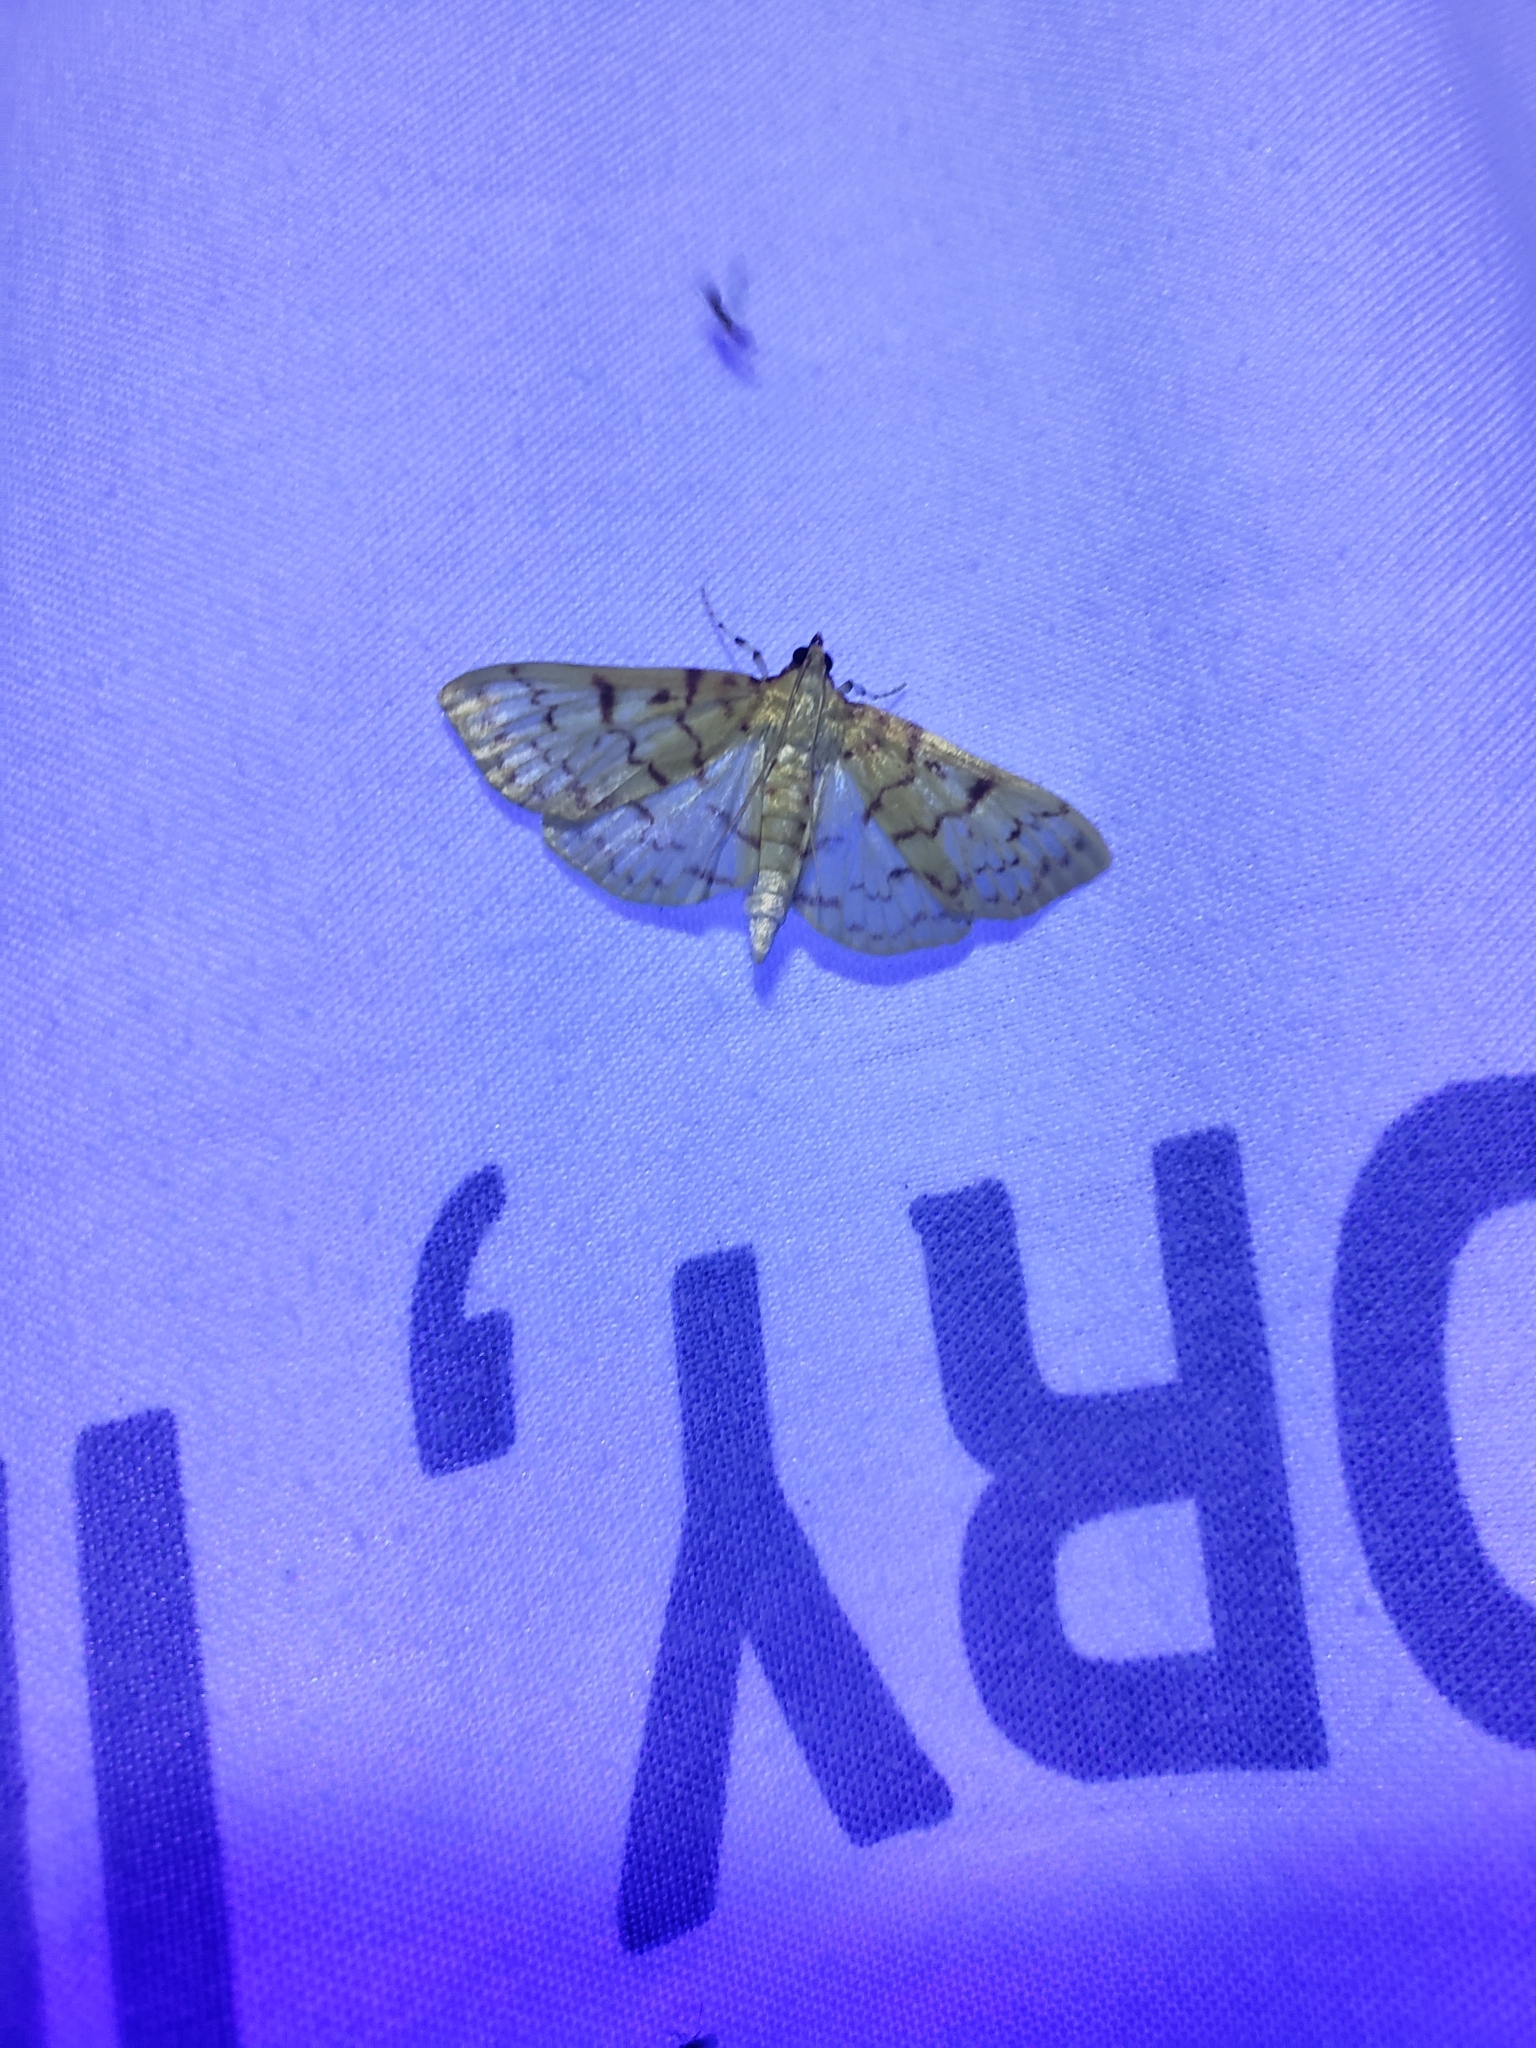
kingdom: Animalia
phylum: Arthropoda
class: Insecta
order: Lepidoptera
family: Crambidae
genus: Polygrammodes
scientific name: Polygrammodes flavidalis
